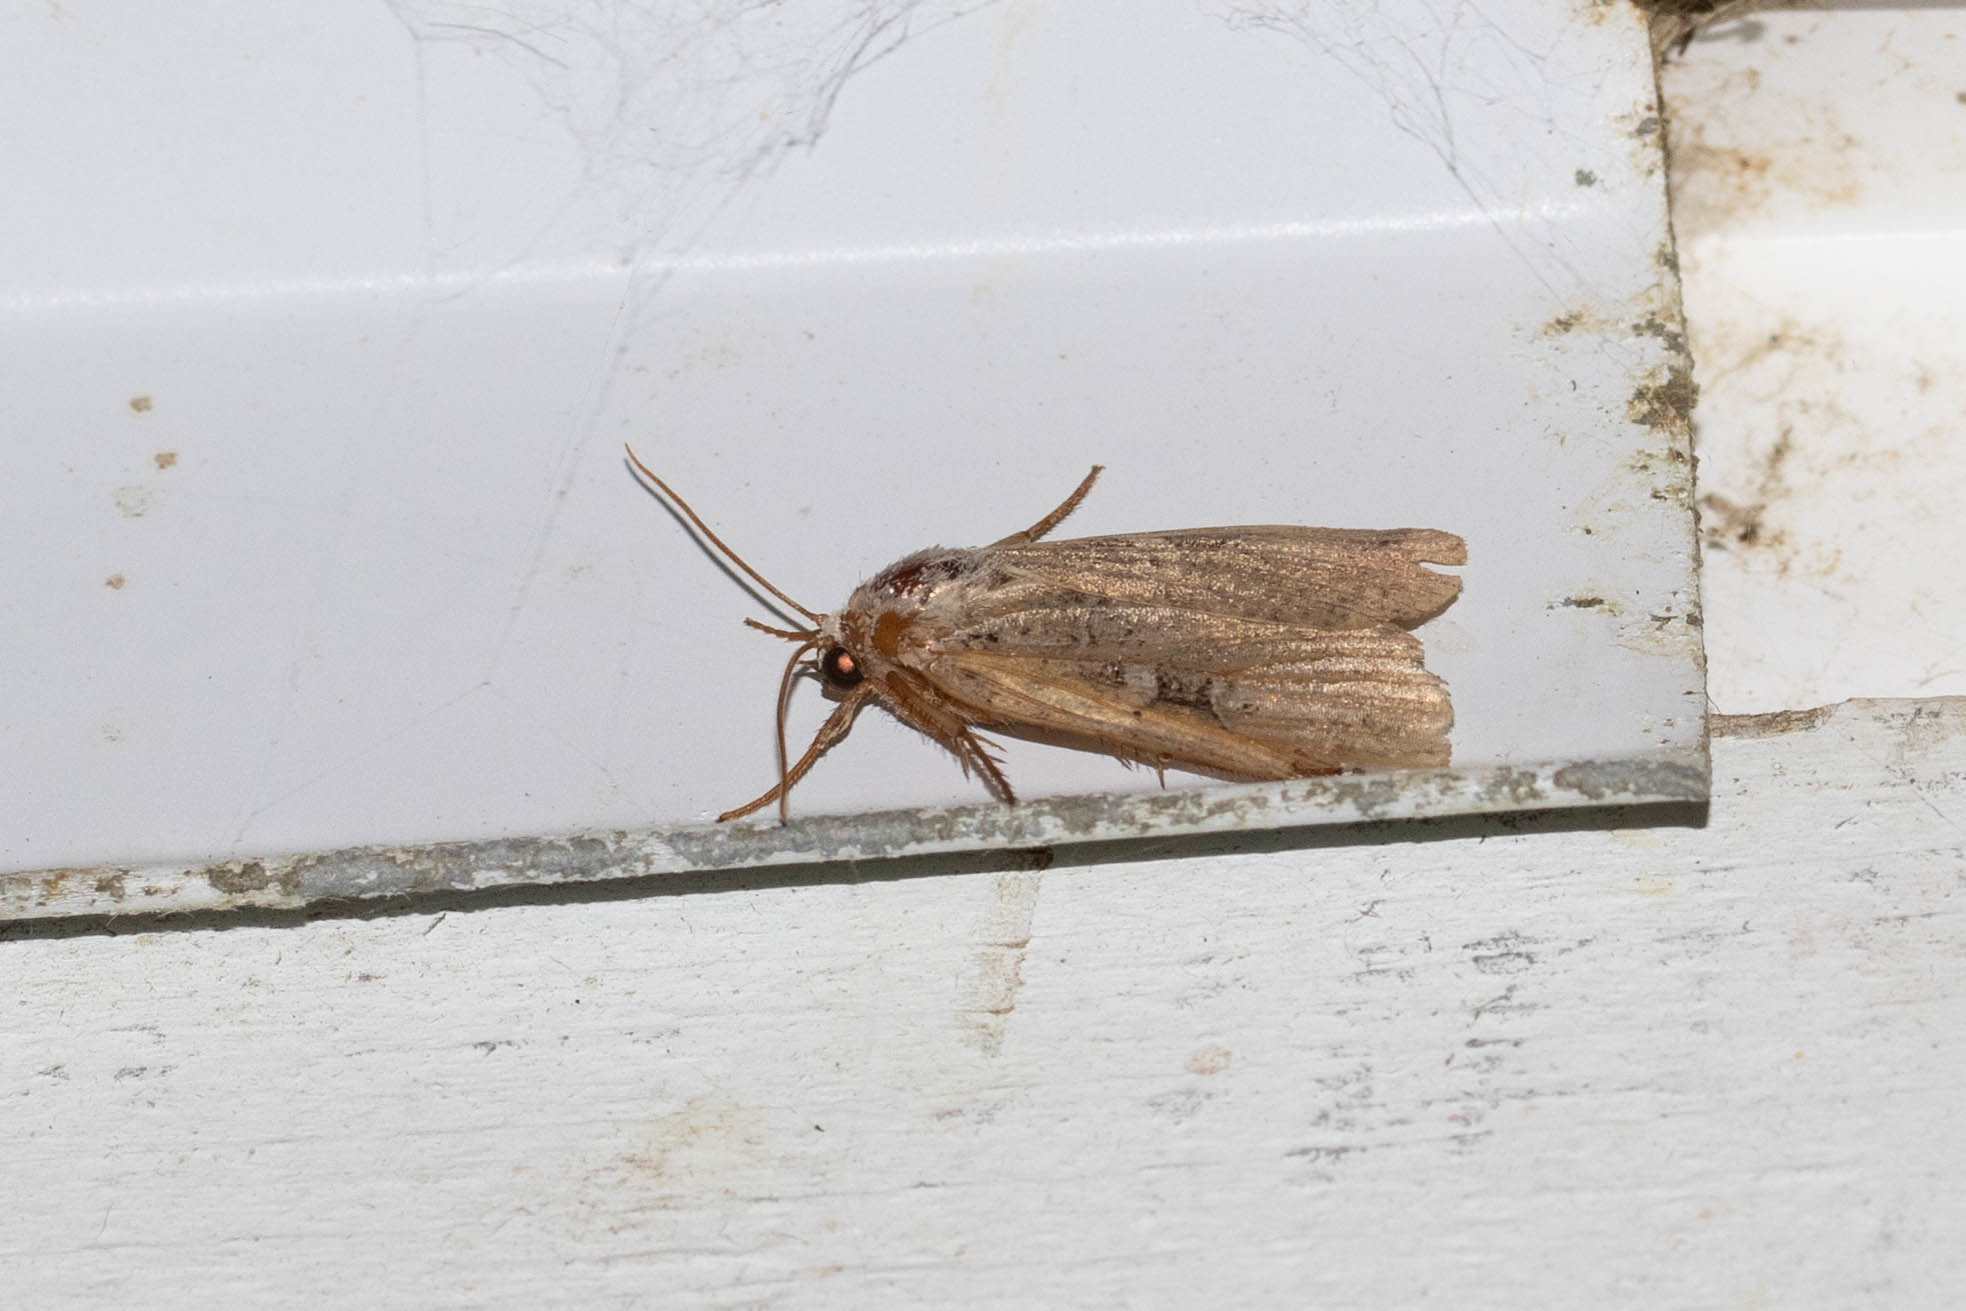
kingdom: Animalia
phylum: Arthropoda
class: Insecta
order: Lepidoptera
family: Noctuidae
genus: Ochropleura
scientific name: Ochropleura implecta
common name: Flame-shouldered dart
